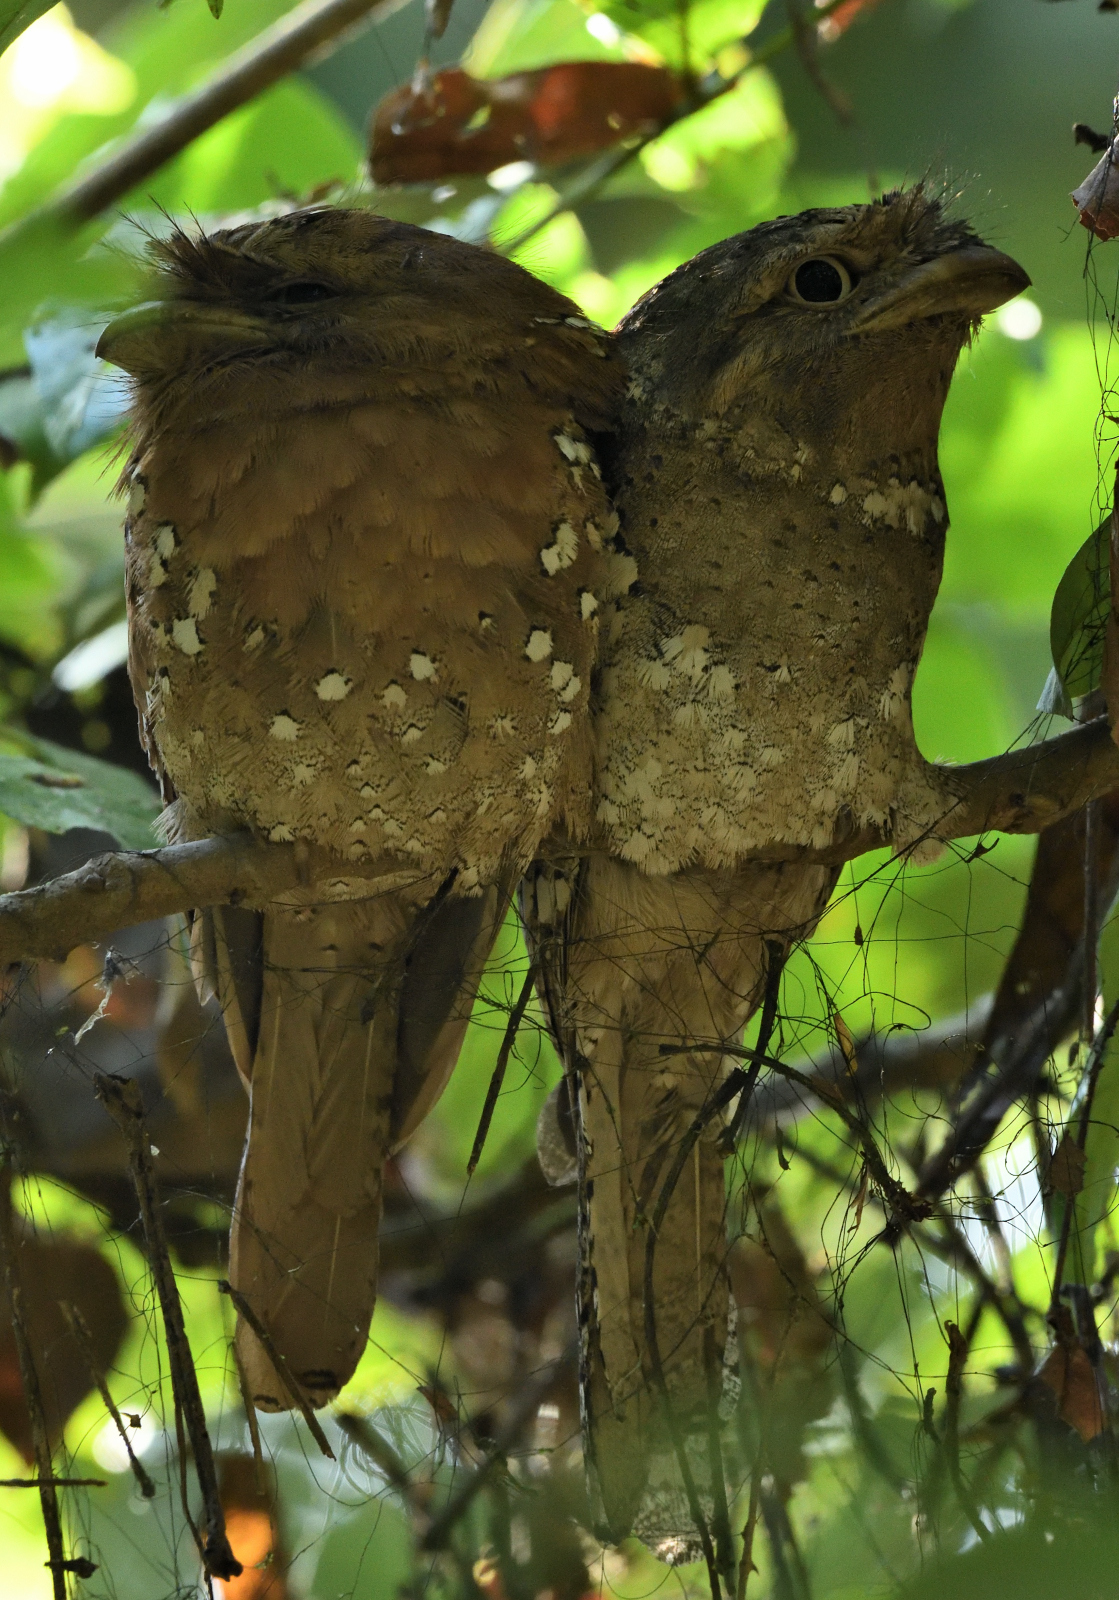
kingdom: Animalia
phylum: Chordata
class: Aves
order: Caprimulgiformes
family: Podargidae
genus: Batrachostomus
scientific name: Batrachostomus moniliger
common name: Sri lanka frogmouth
